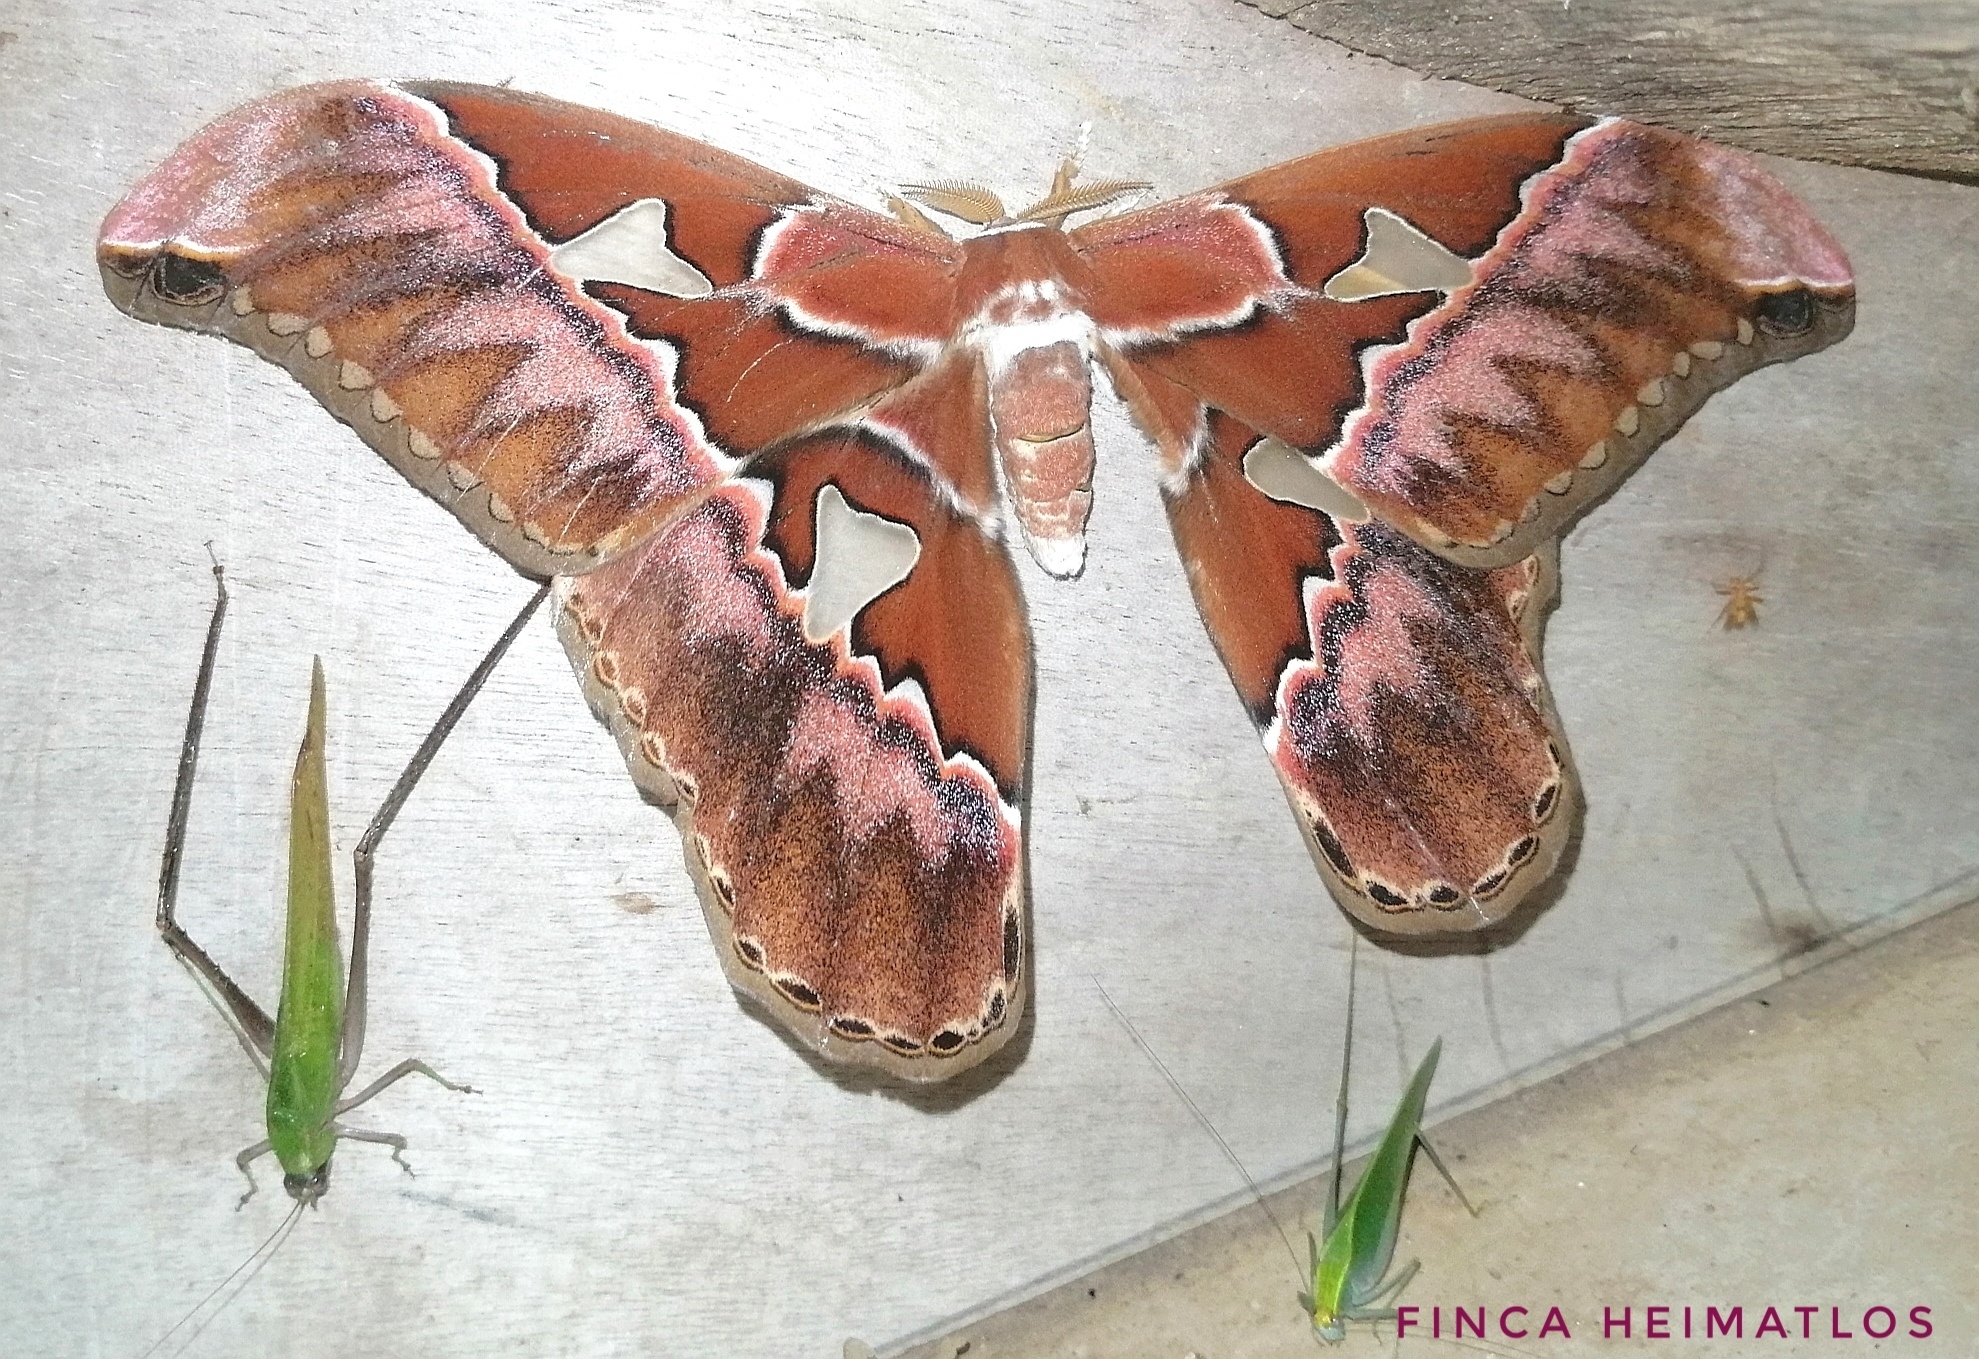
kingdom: Animalia
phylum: Arthropoda
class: Insecta
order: Lepidoptera
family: Saturniidae
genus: Rothschildia
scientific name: Rothschildia lebeau
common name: Lebeau's rothschildia
